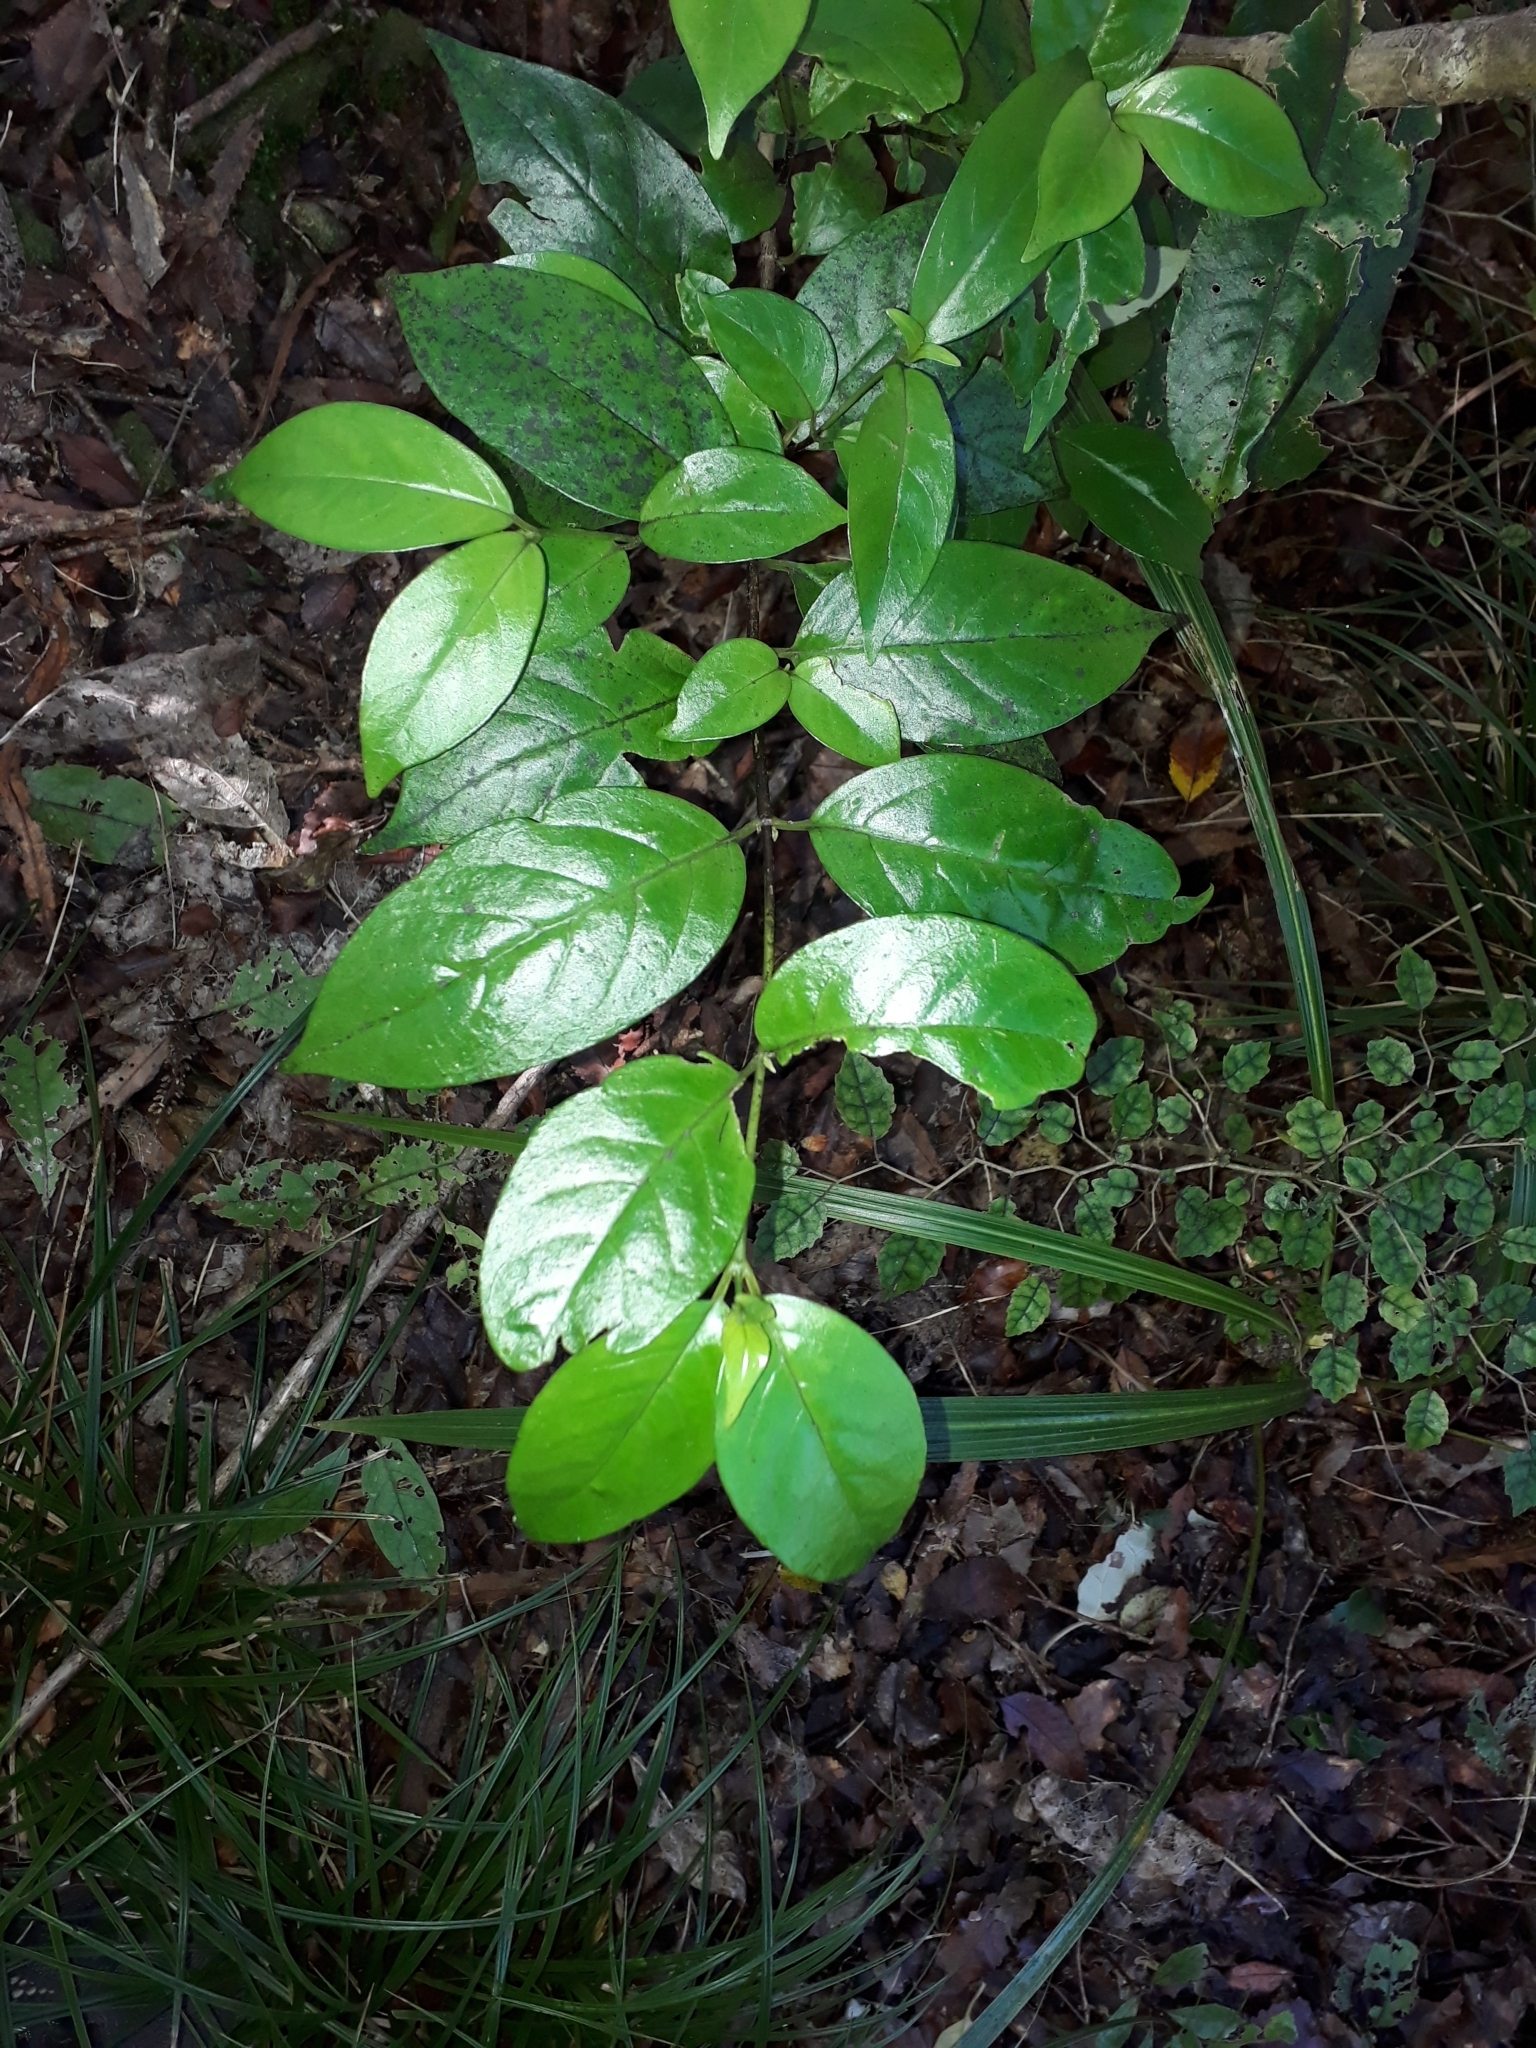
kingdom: Plantae
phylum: Tracheophyta
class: Magnoliopsida
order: Gentianales
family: Loganiaceae
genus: Geniostoma
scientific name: Geniostoma ligustrifolium
